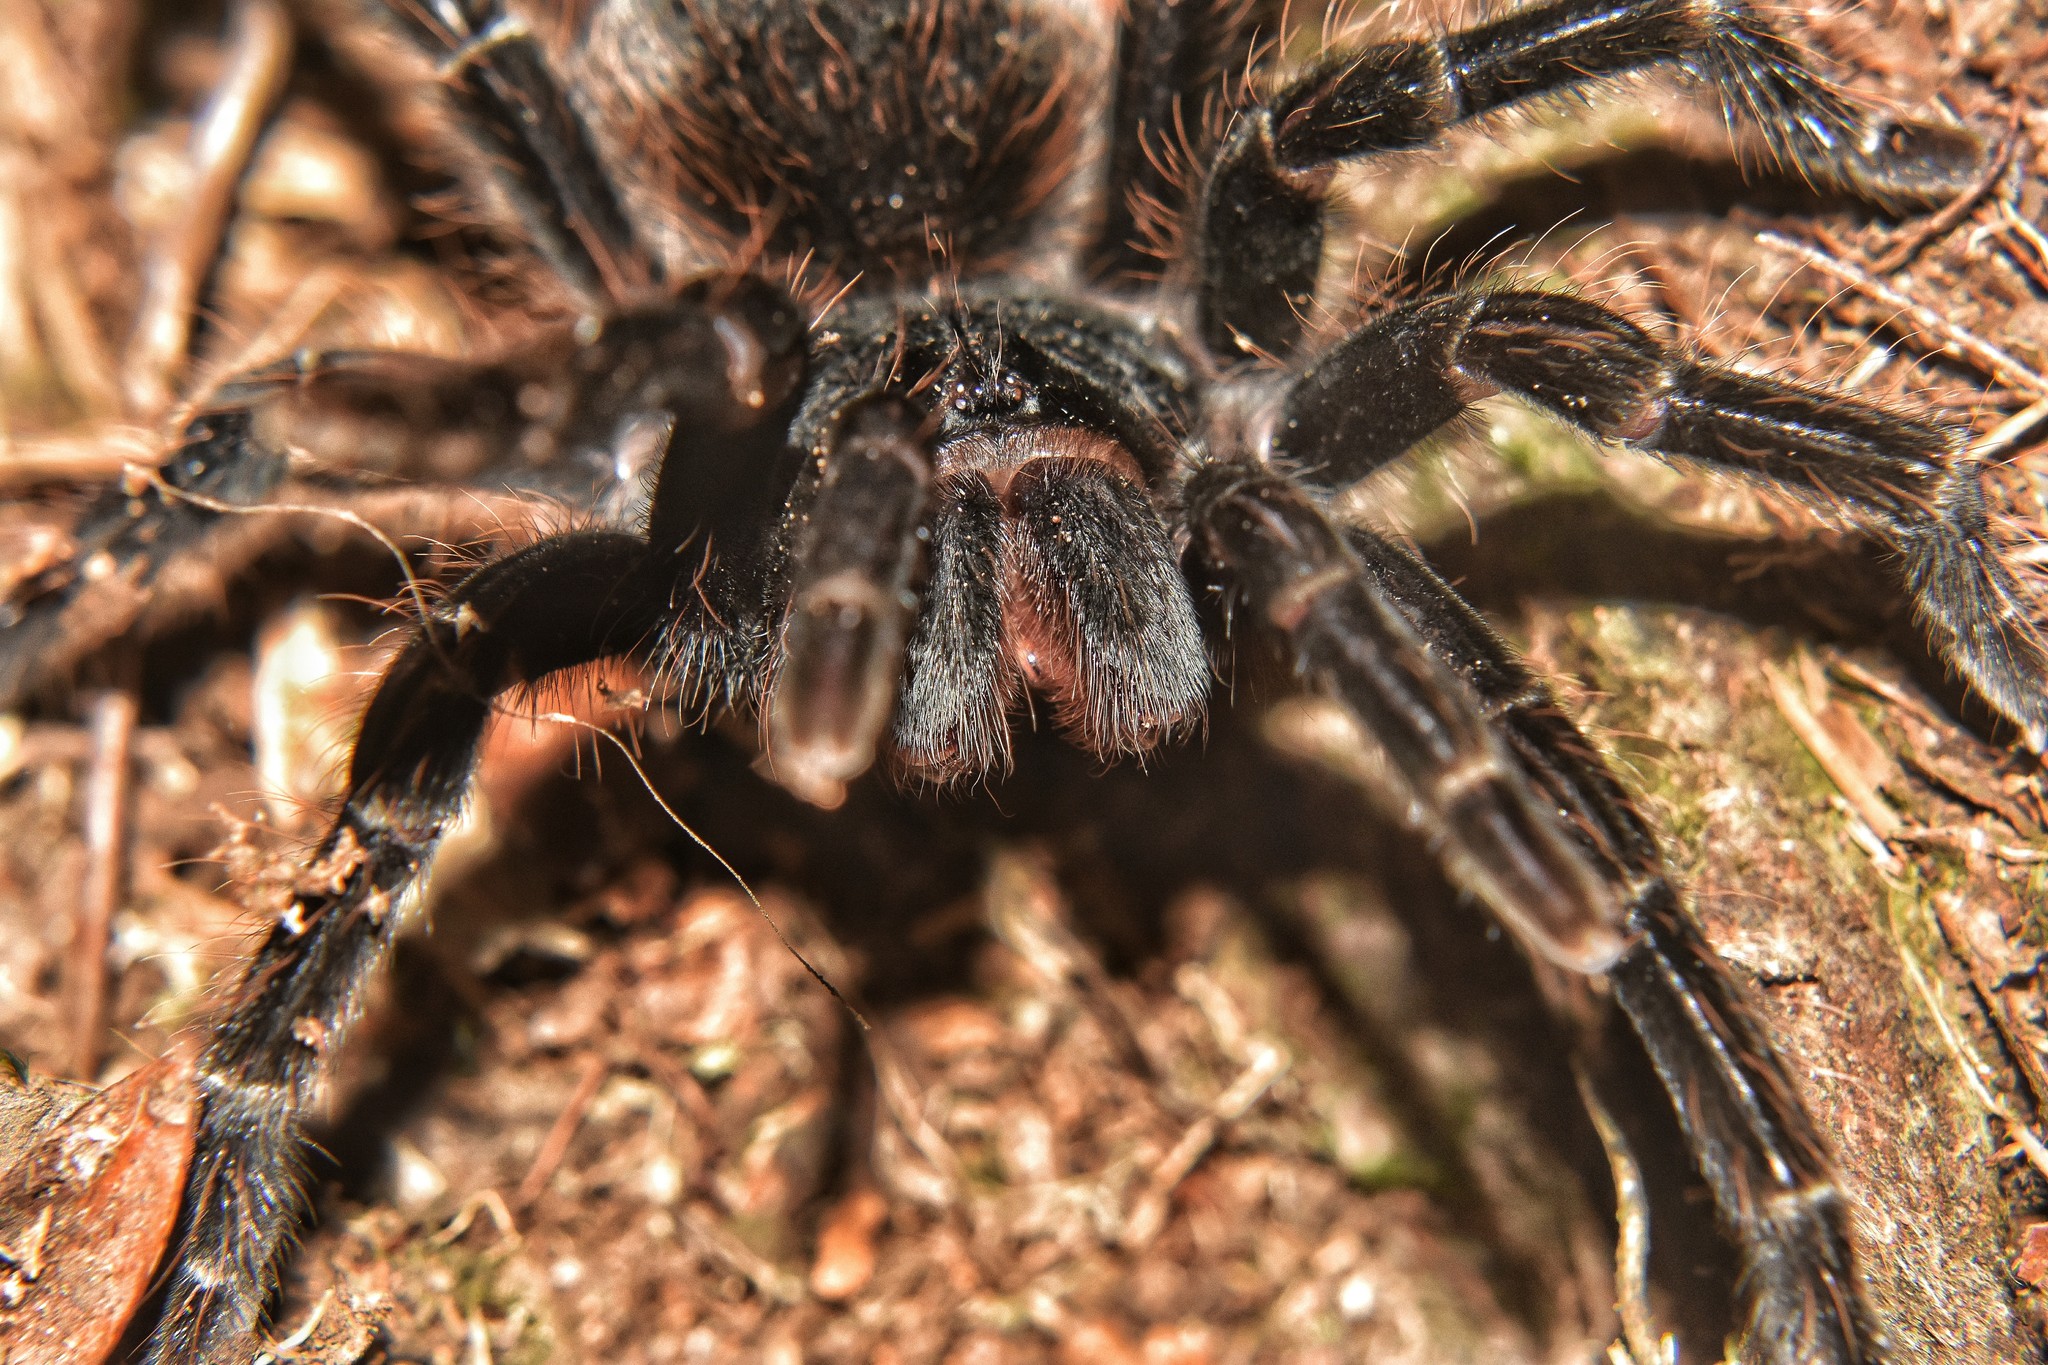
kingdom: Animalia
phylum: Arthropoda
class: Arachnida
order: Araneae
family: Theraphosidae
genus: Aguapanela
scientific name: Aguapanela arvi
